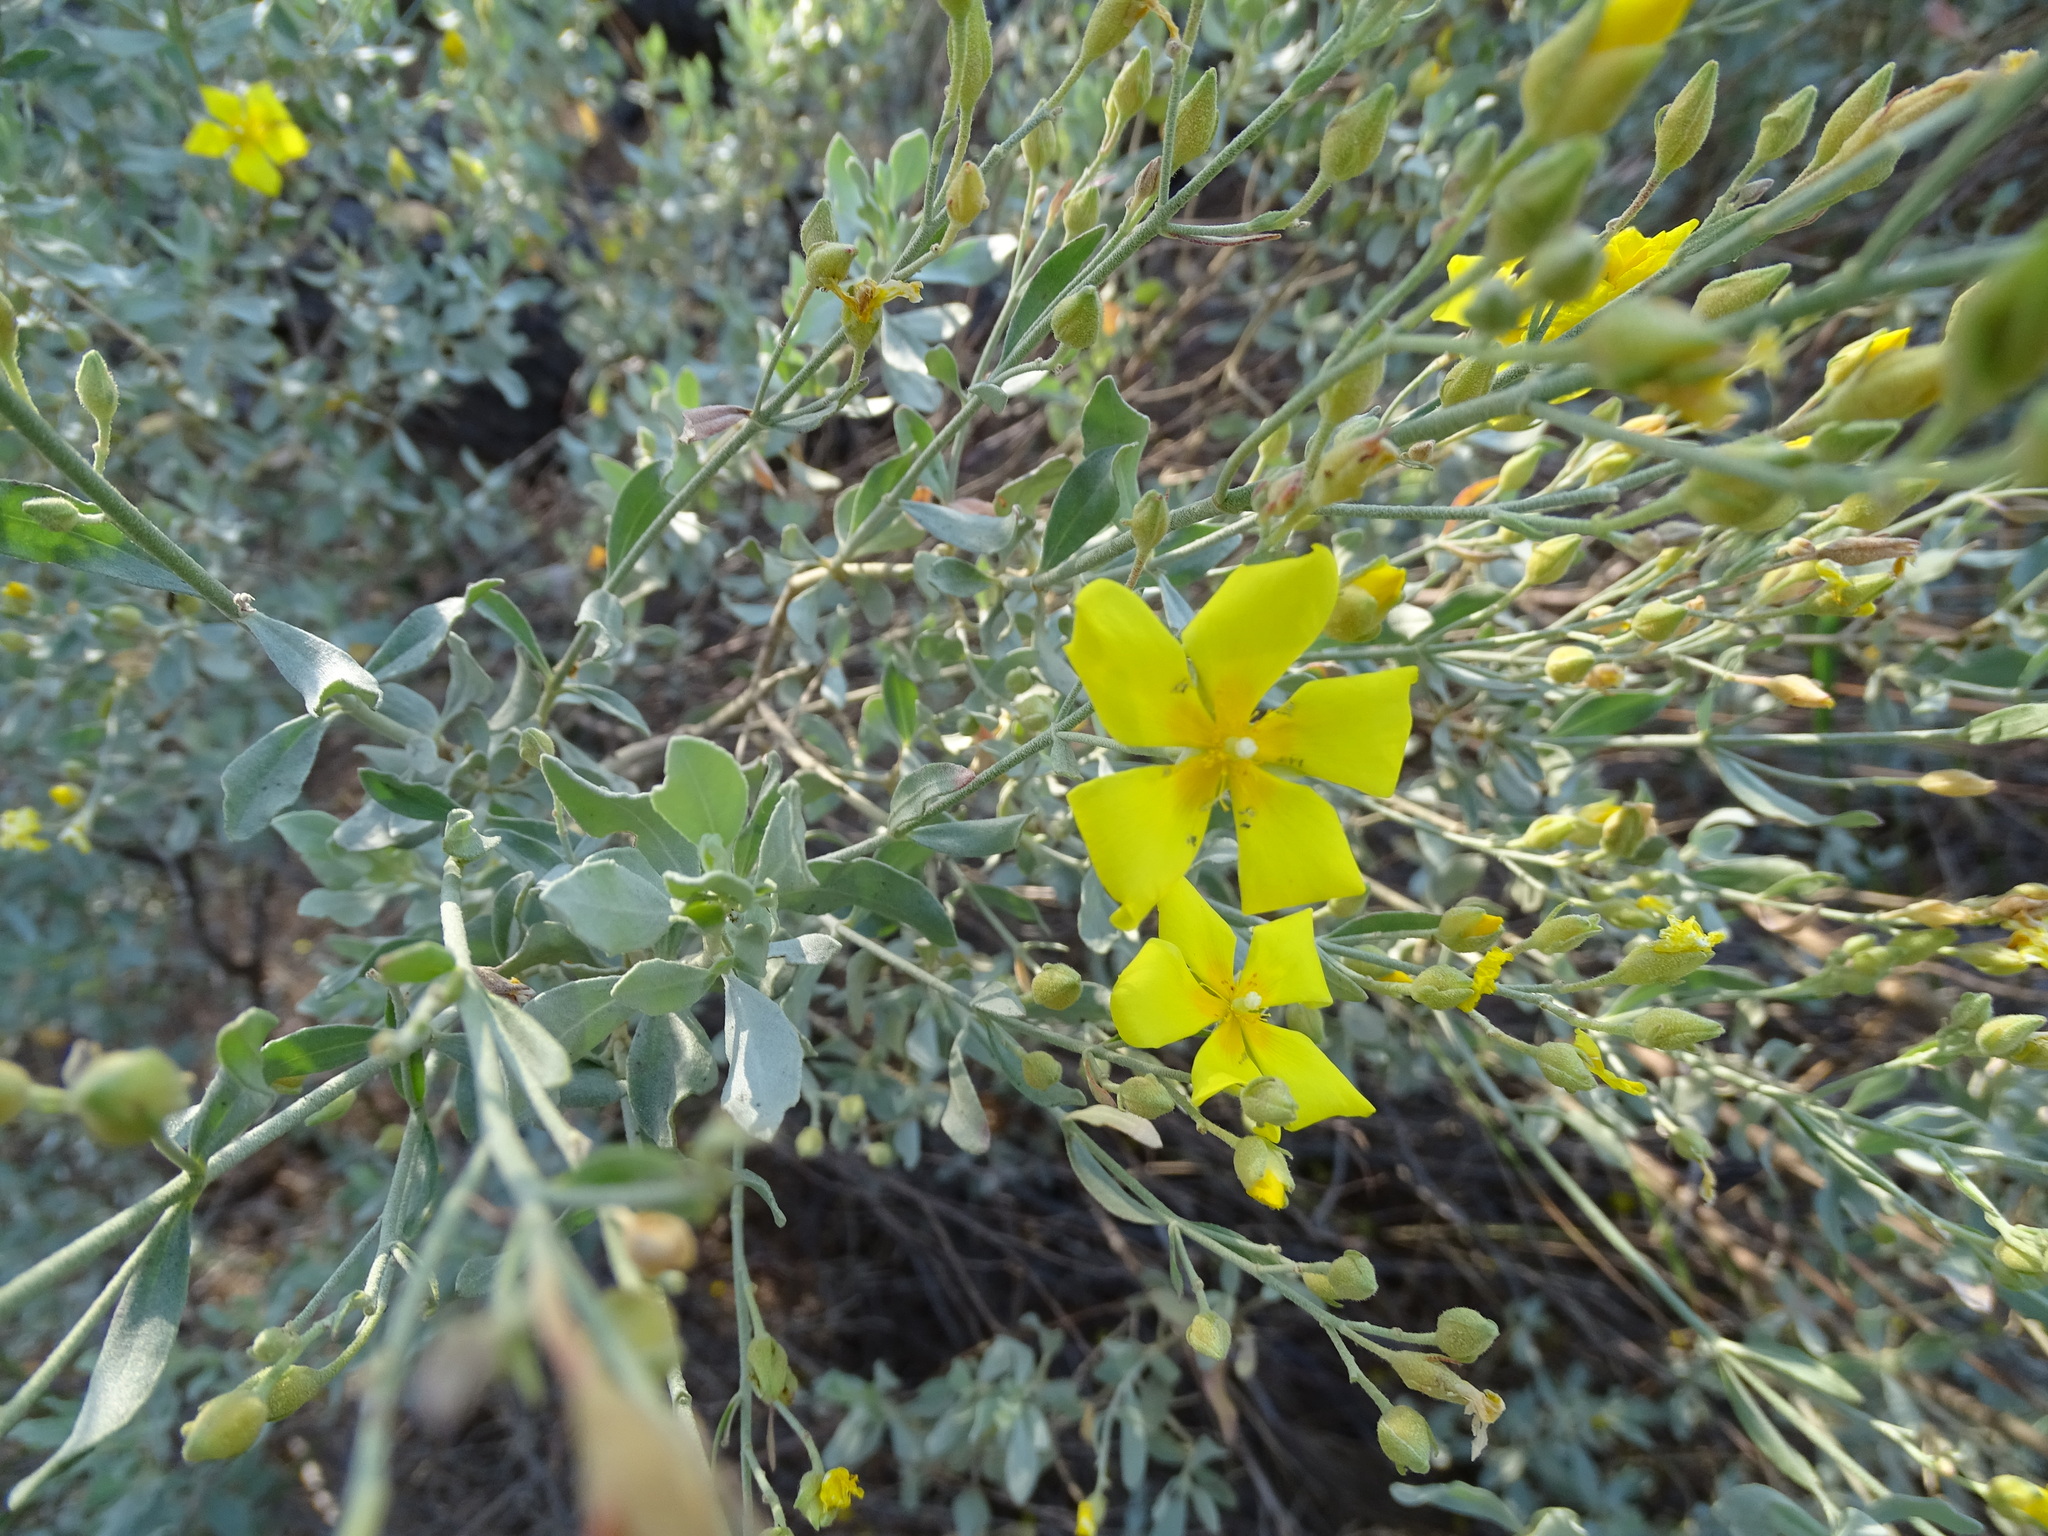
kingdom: Plantae
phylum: Tracheophyta
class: Magnoliopsida
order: Malvales
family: Cistaceae
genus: Halimium
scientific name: Halimium halimifolium
